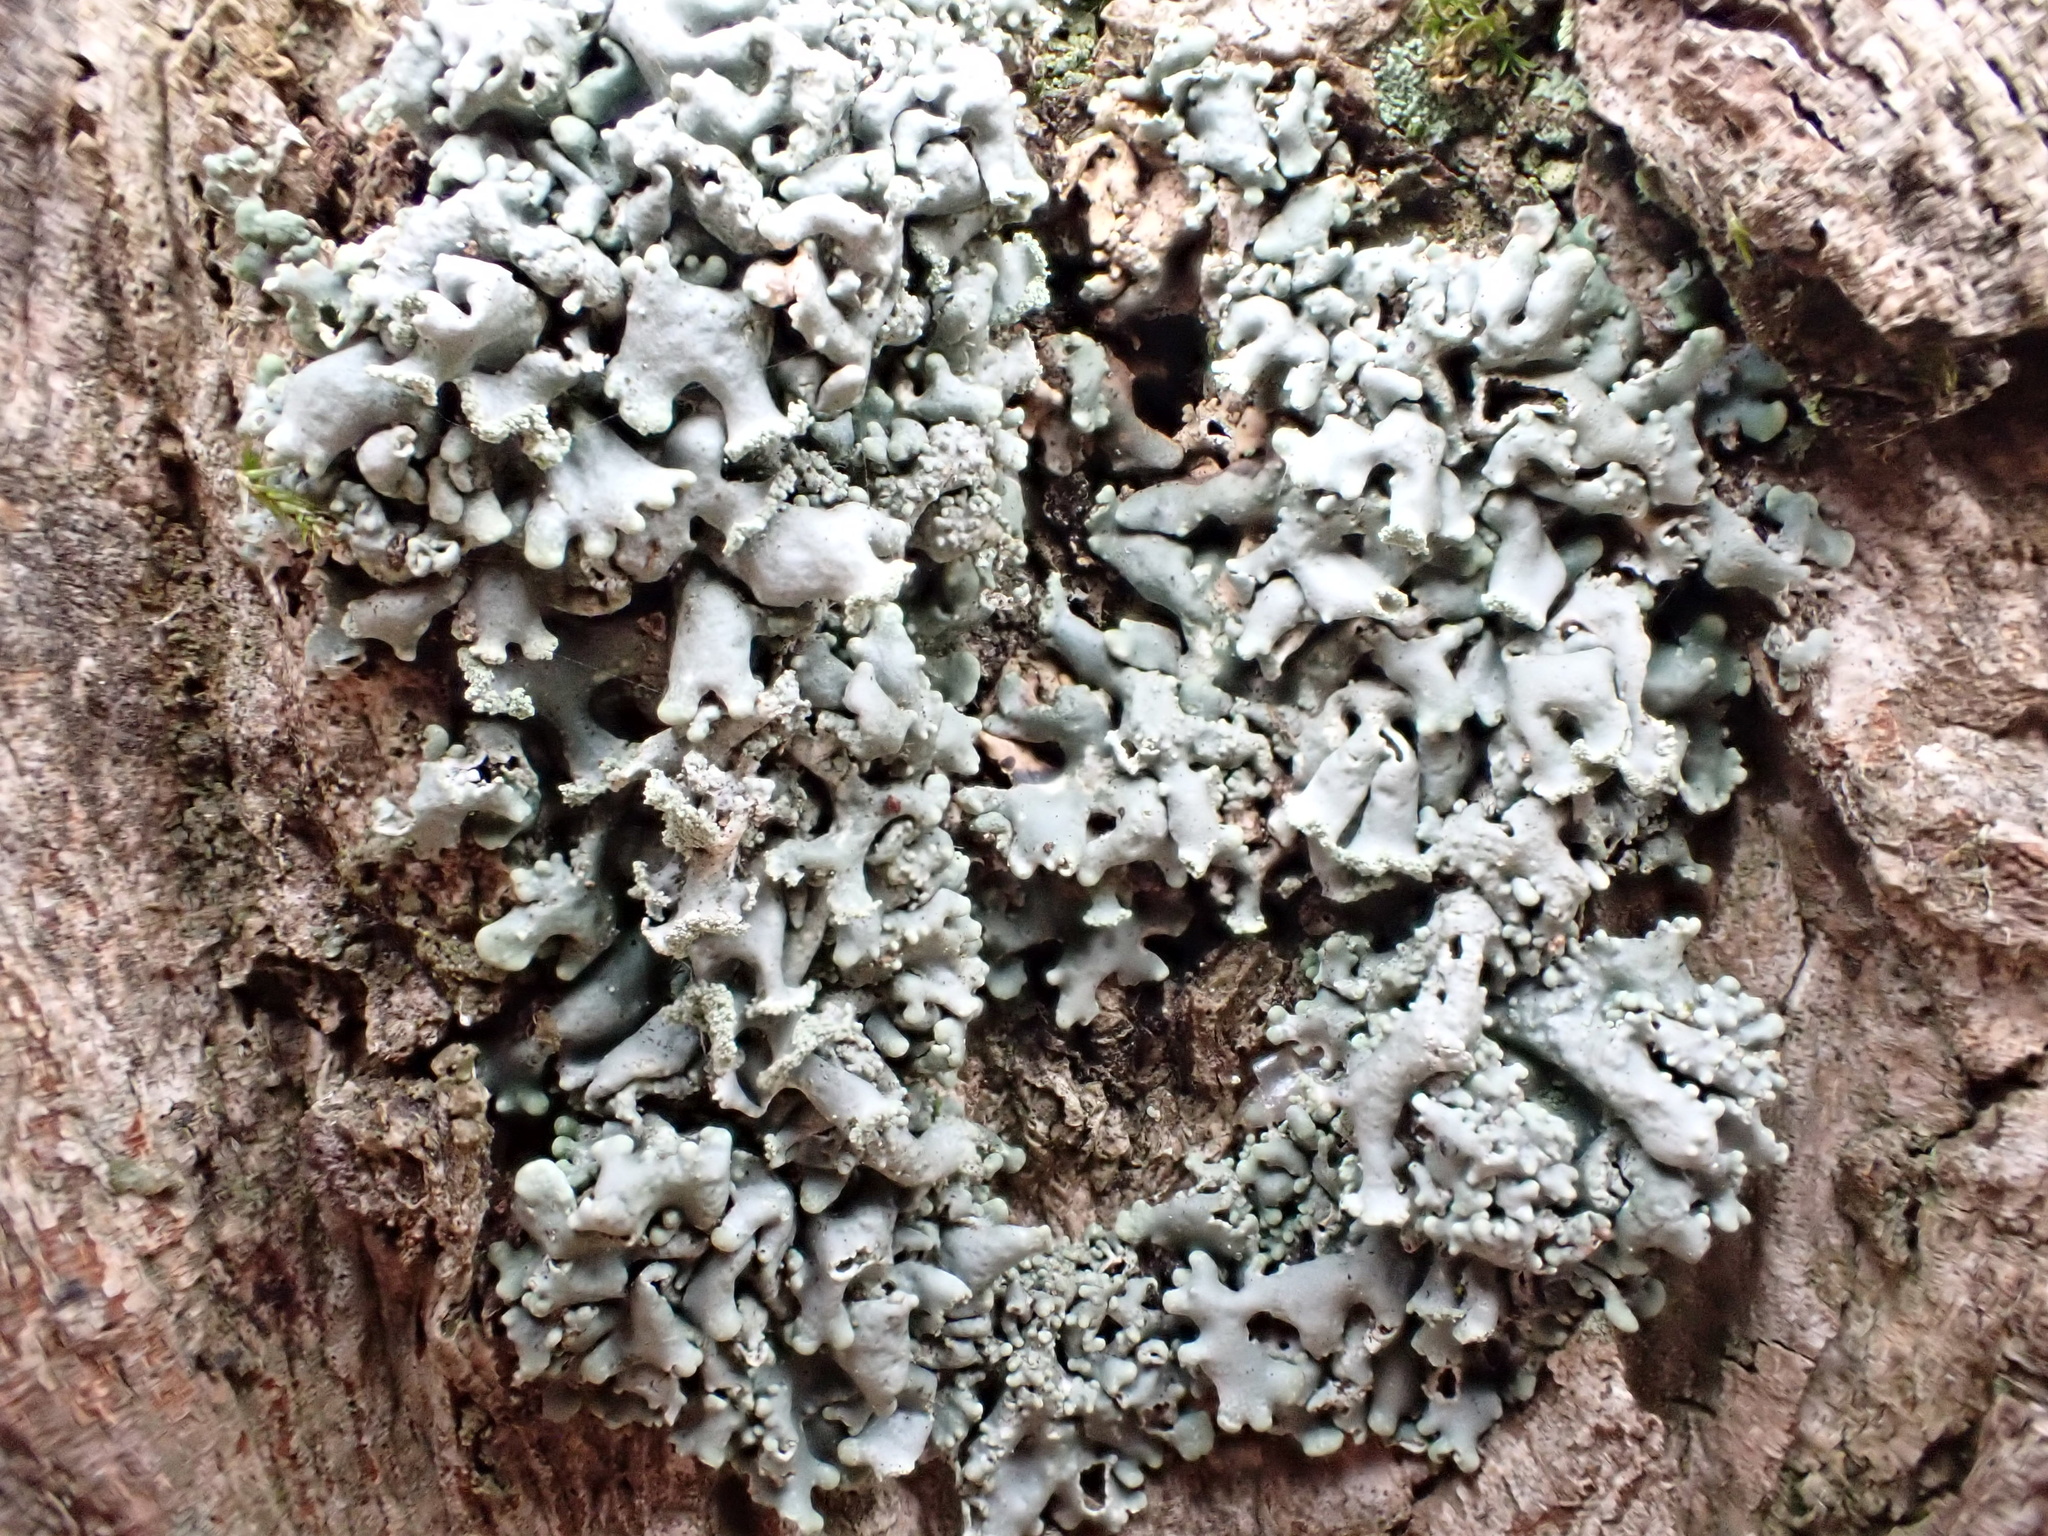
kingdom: Fungi
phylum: Ascomycota
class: Lecanoromycetes
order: Lecanorales
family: Parmeliaceae
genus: Hypogymnia
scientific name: Hypogymnia physodes
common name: Dark crottle
